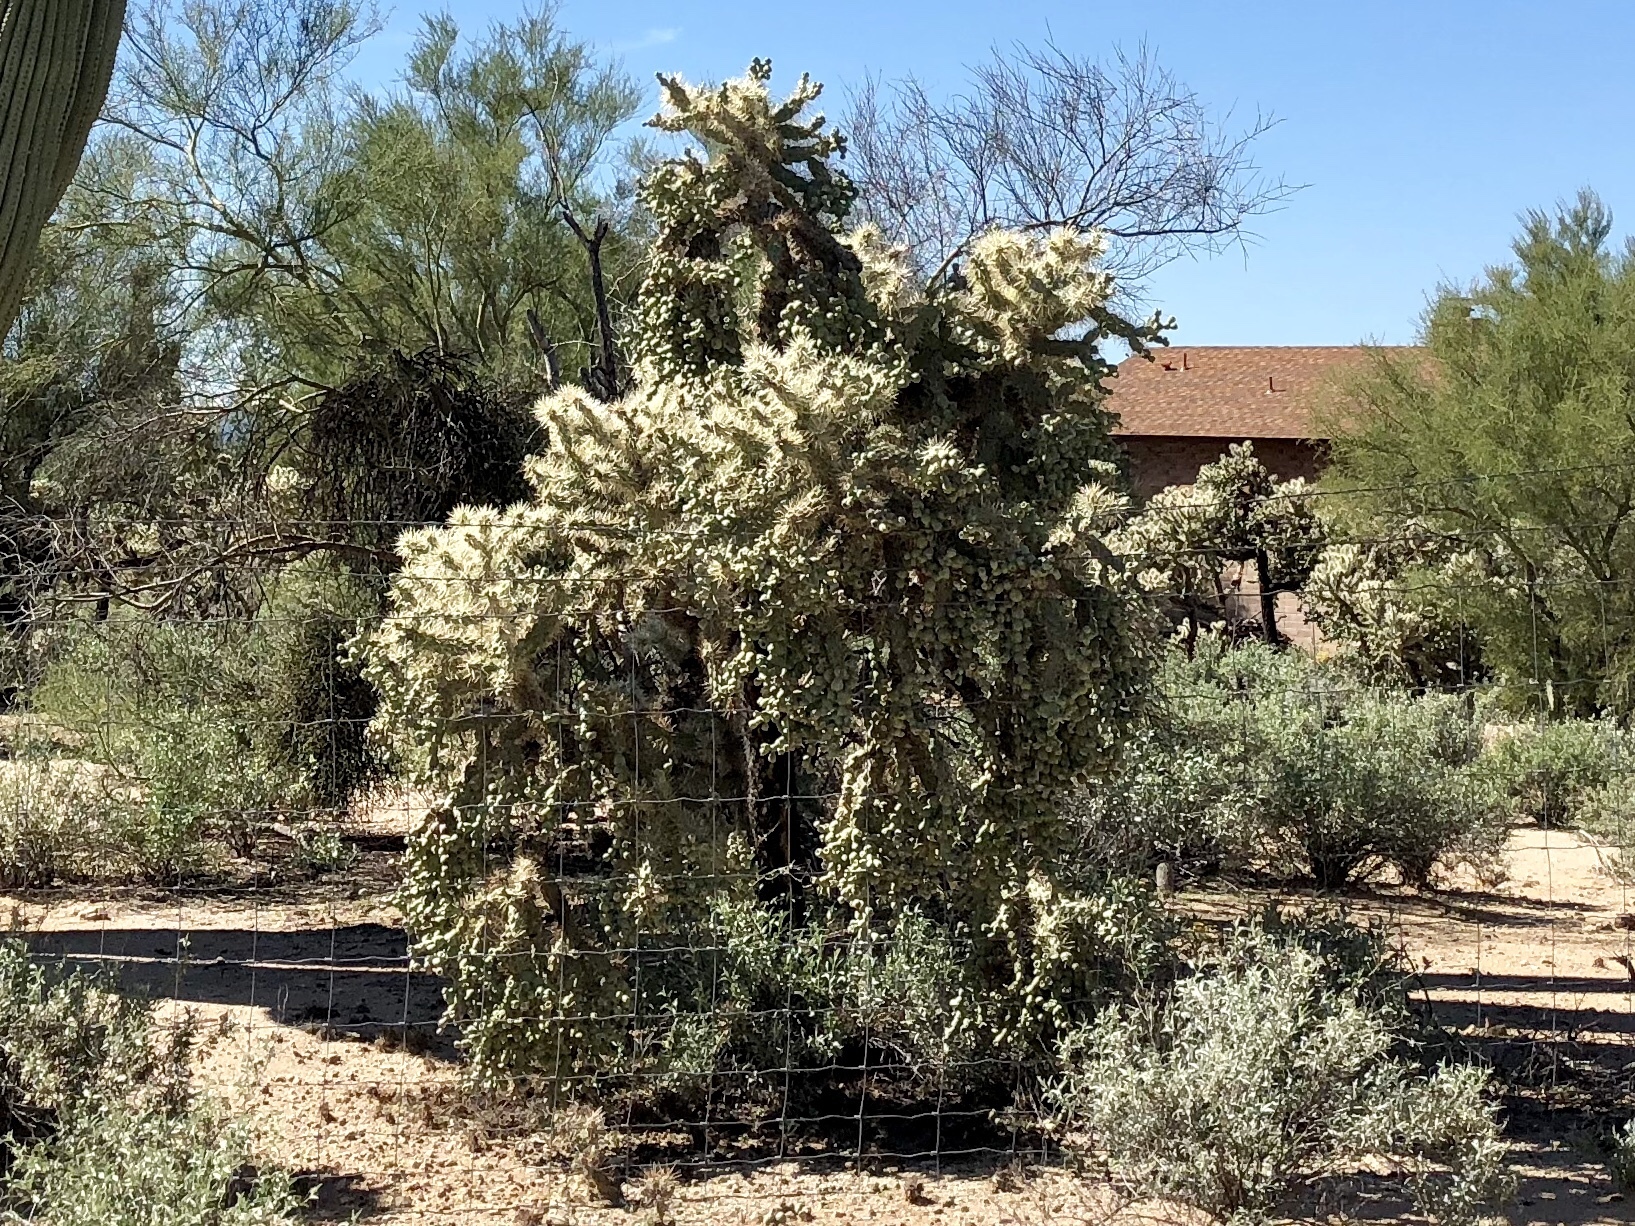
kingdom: Plantae
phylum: Tracheophyta
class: Magnoliopsida
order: Caryophyllales
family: Cactaceae
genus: Cylindropuntia
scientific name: Cylindropuntia fulgida
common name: Jumping cholla
